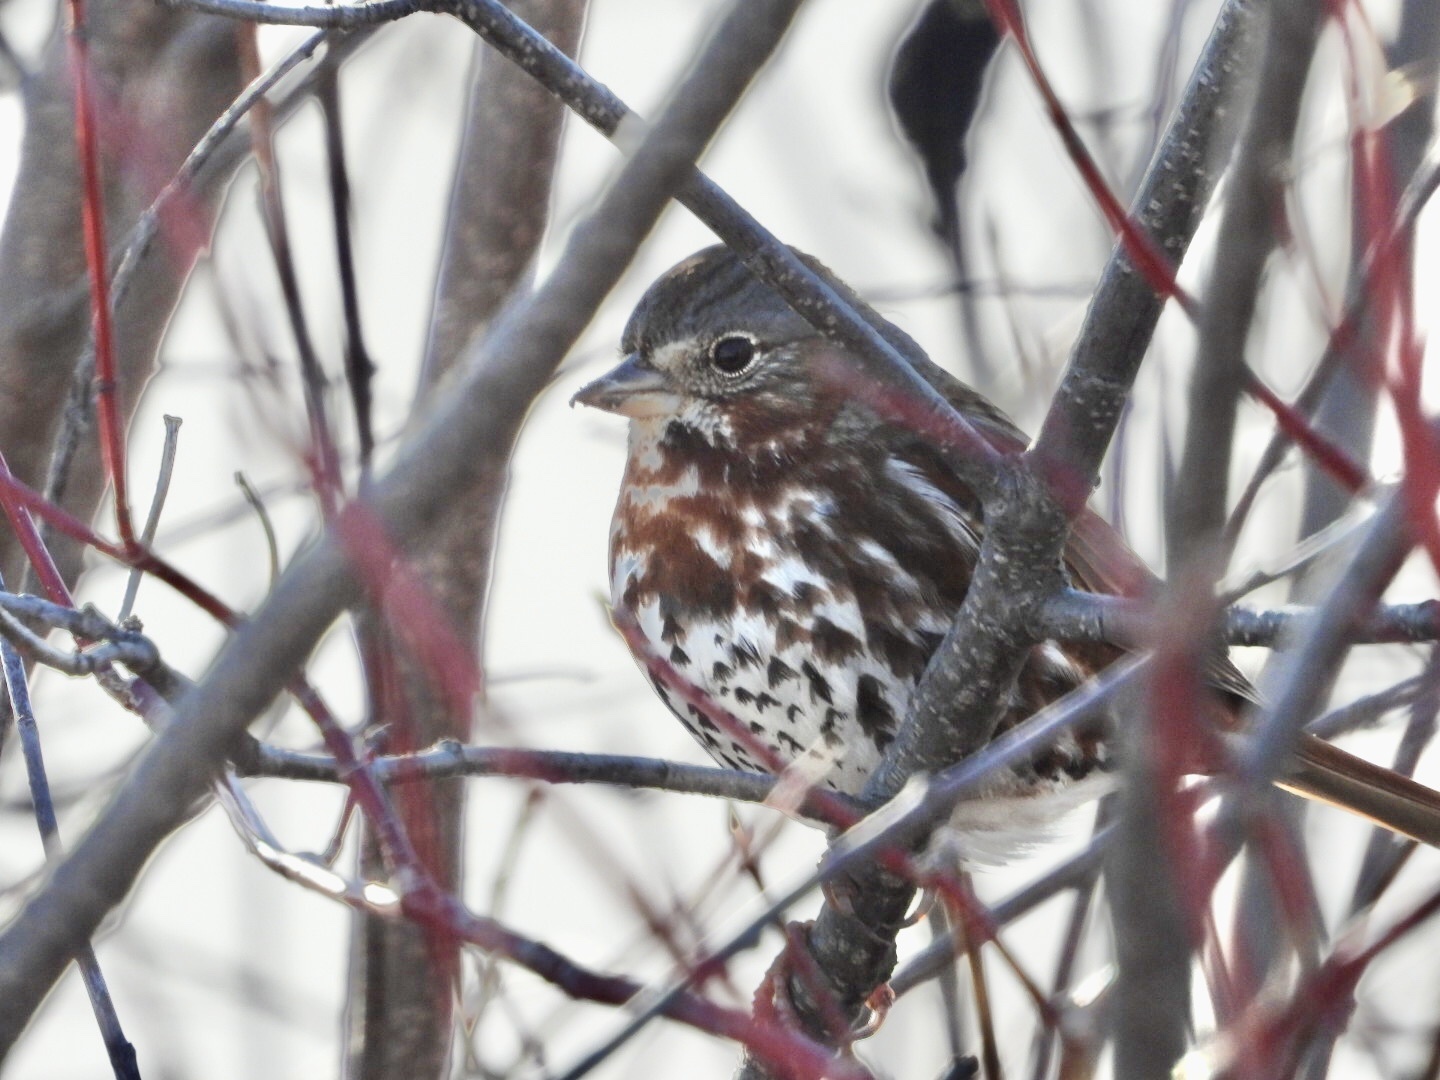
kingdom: Animalia
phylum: Chordata
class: Aves
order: Passeriformes
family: Passerellidae
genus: Passerella
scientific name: Passerella iliaca
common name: Fox sparrow
